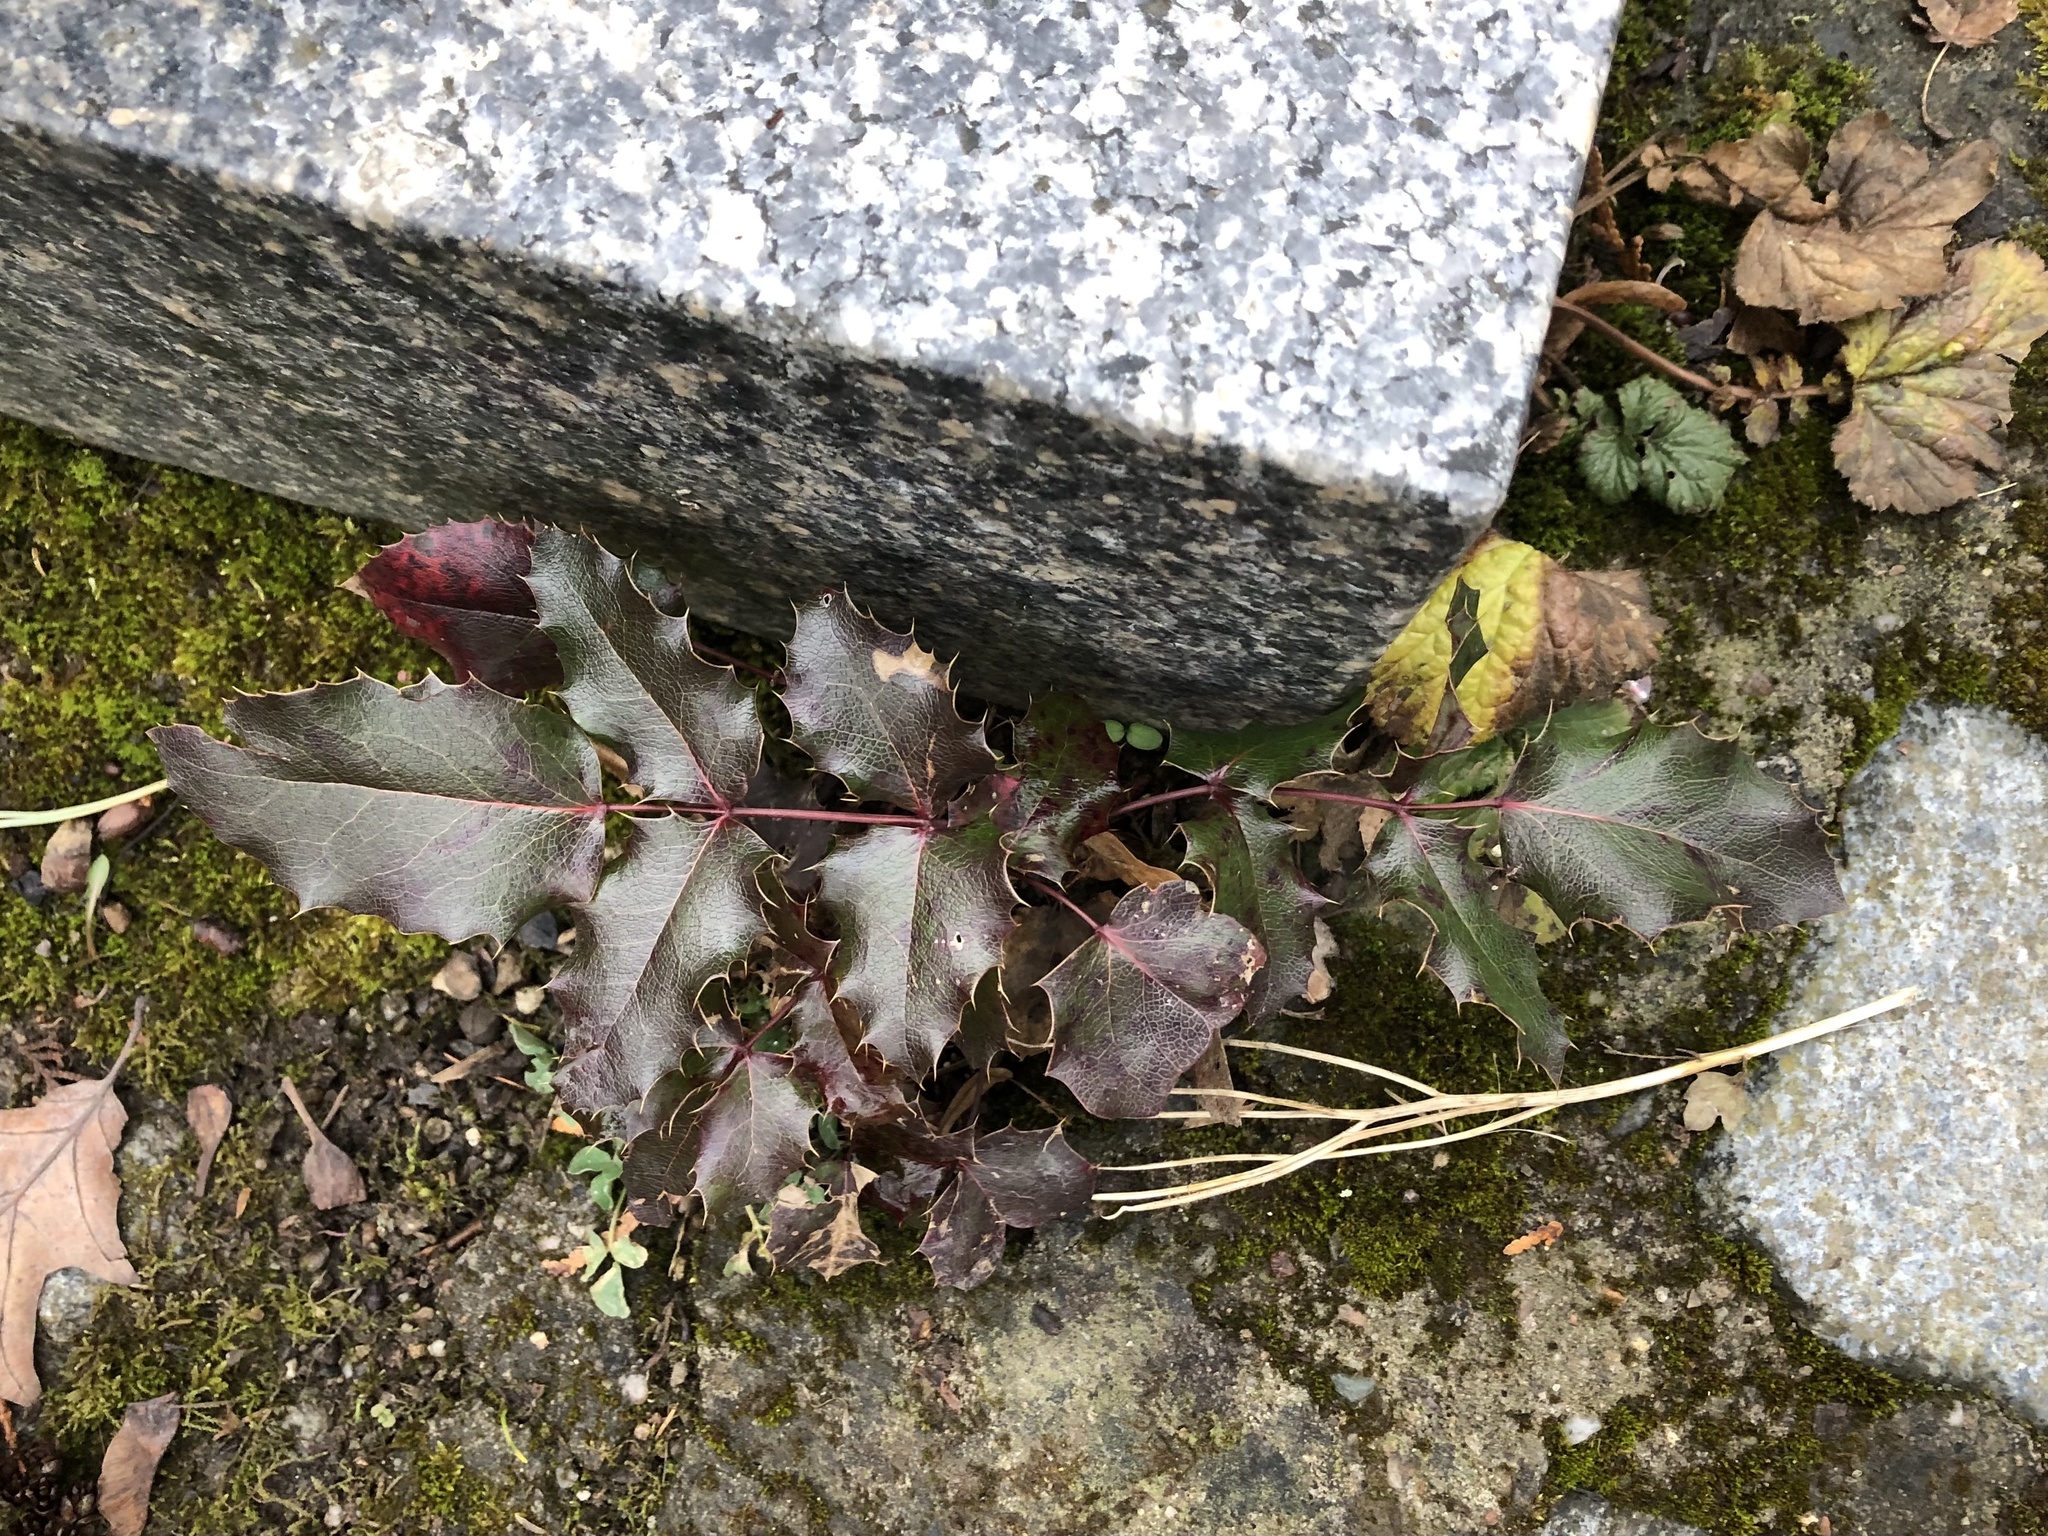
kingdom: Plantae
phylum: Tracheophyta
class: Magnoliopsida
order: Ranunculales
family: Berberidaceae
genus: Mahonia
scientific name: Mahonia aquifolium
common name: Oregon-grape
